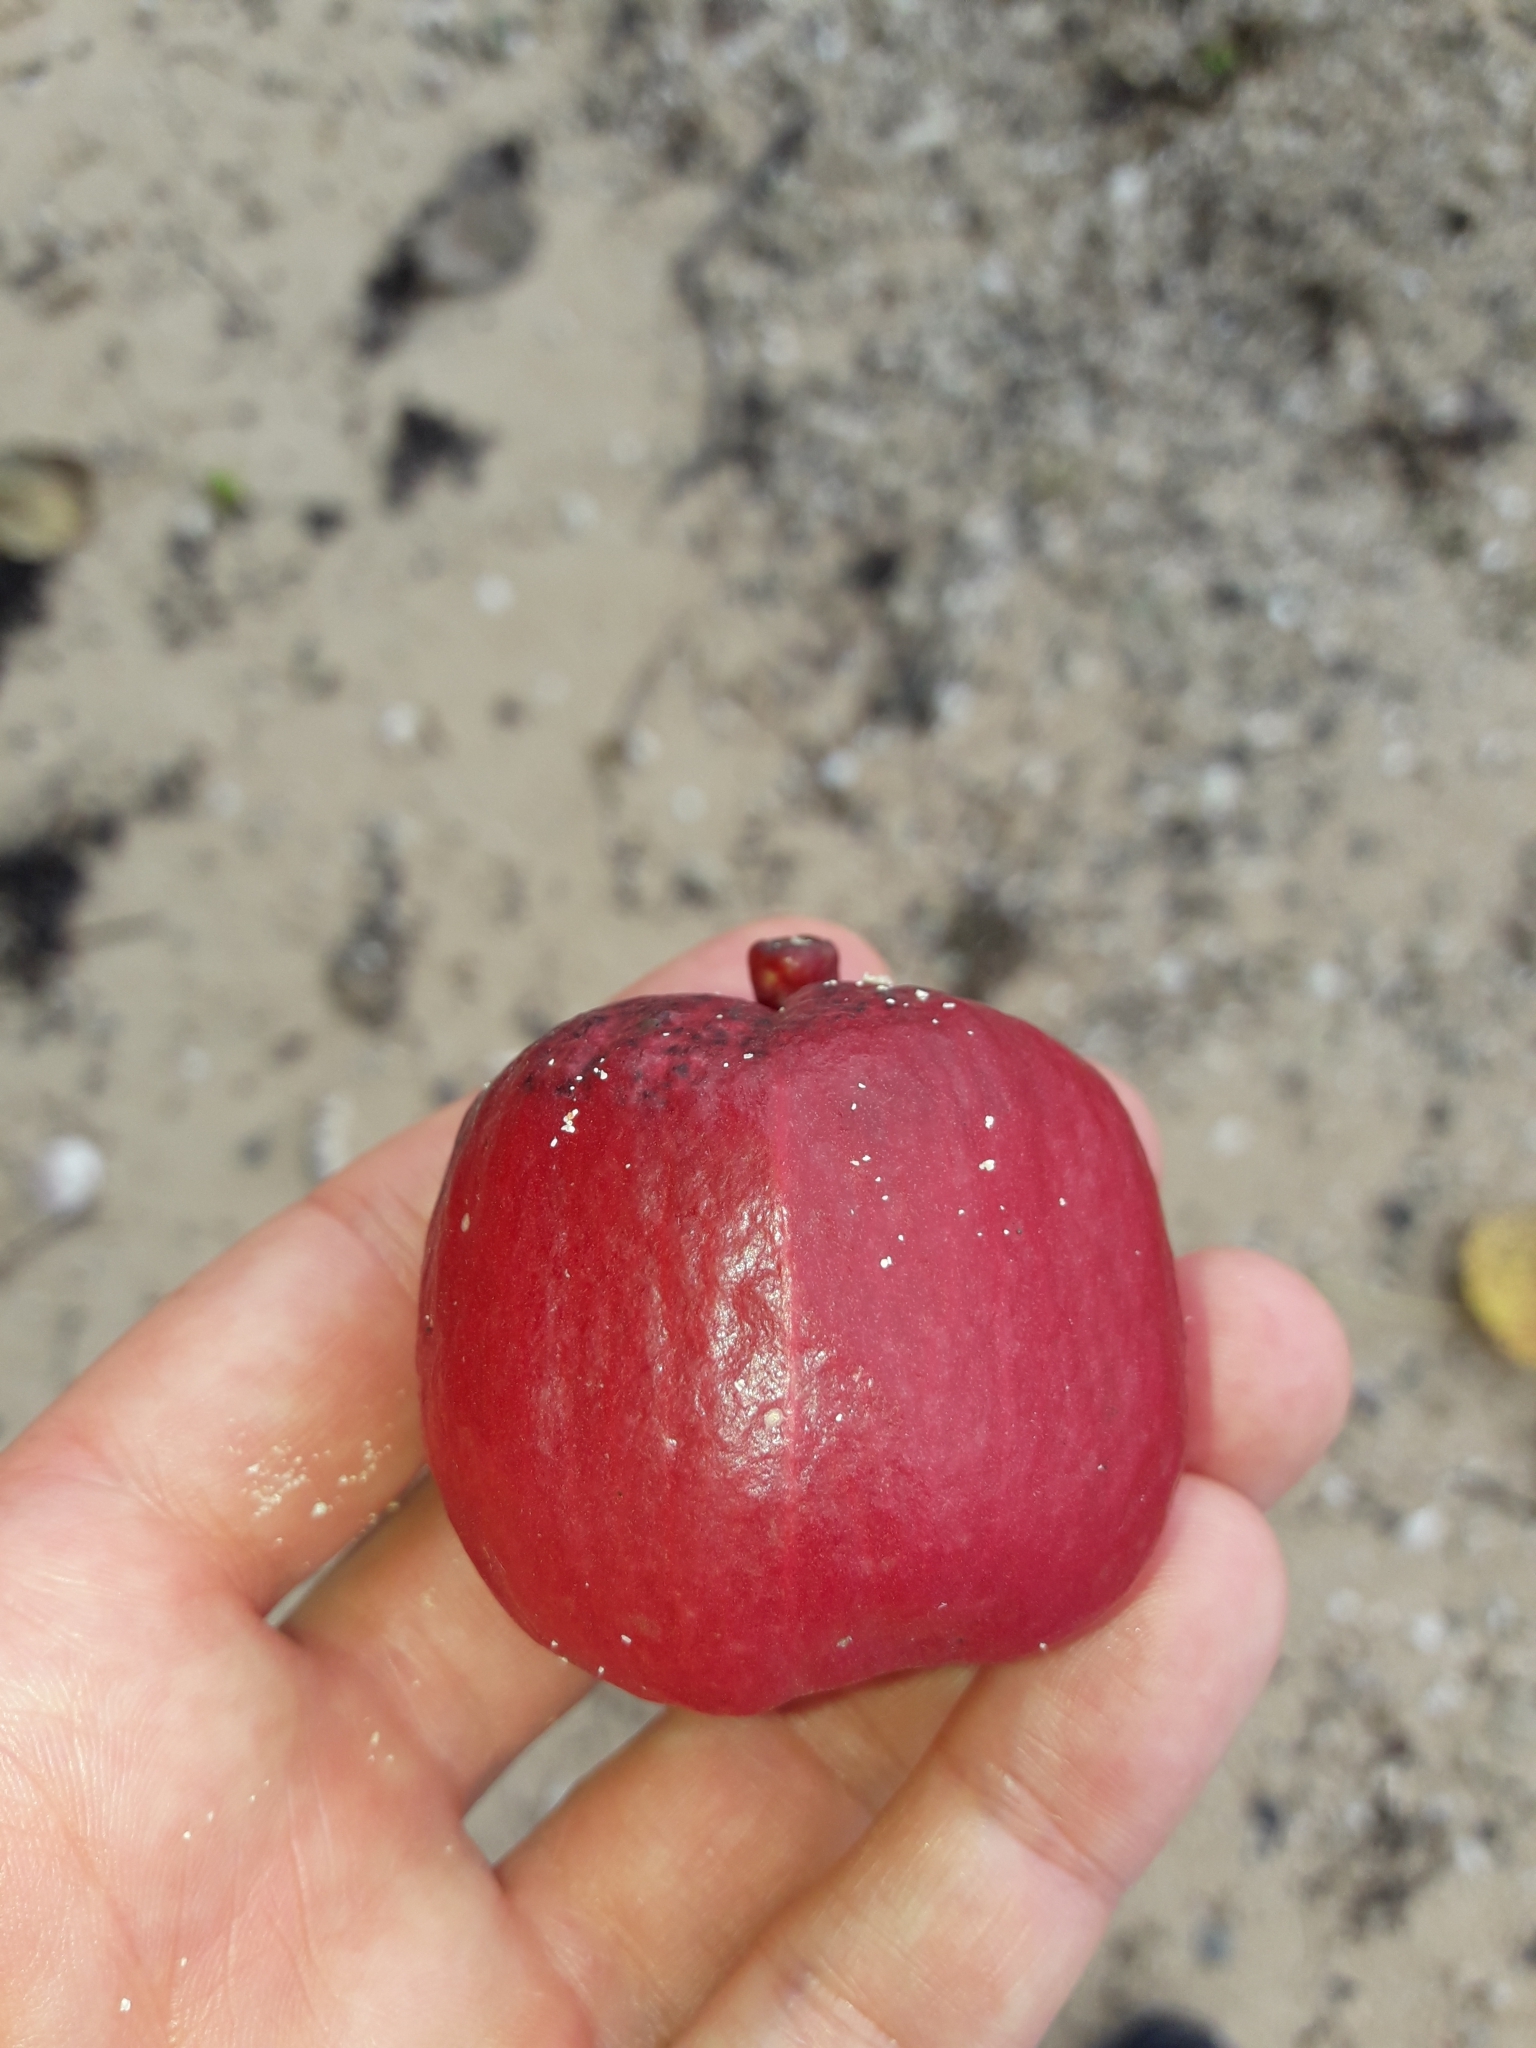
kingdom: Plantae
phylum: Tracheophyta
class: Magnoliopsida
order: Laurales
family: Hernandiaceae
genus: Hernandia
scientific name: Hernandia nymphaeifolia
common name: Sea hearse
